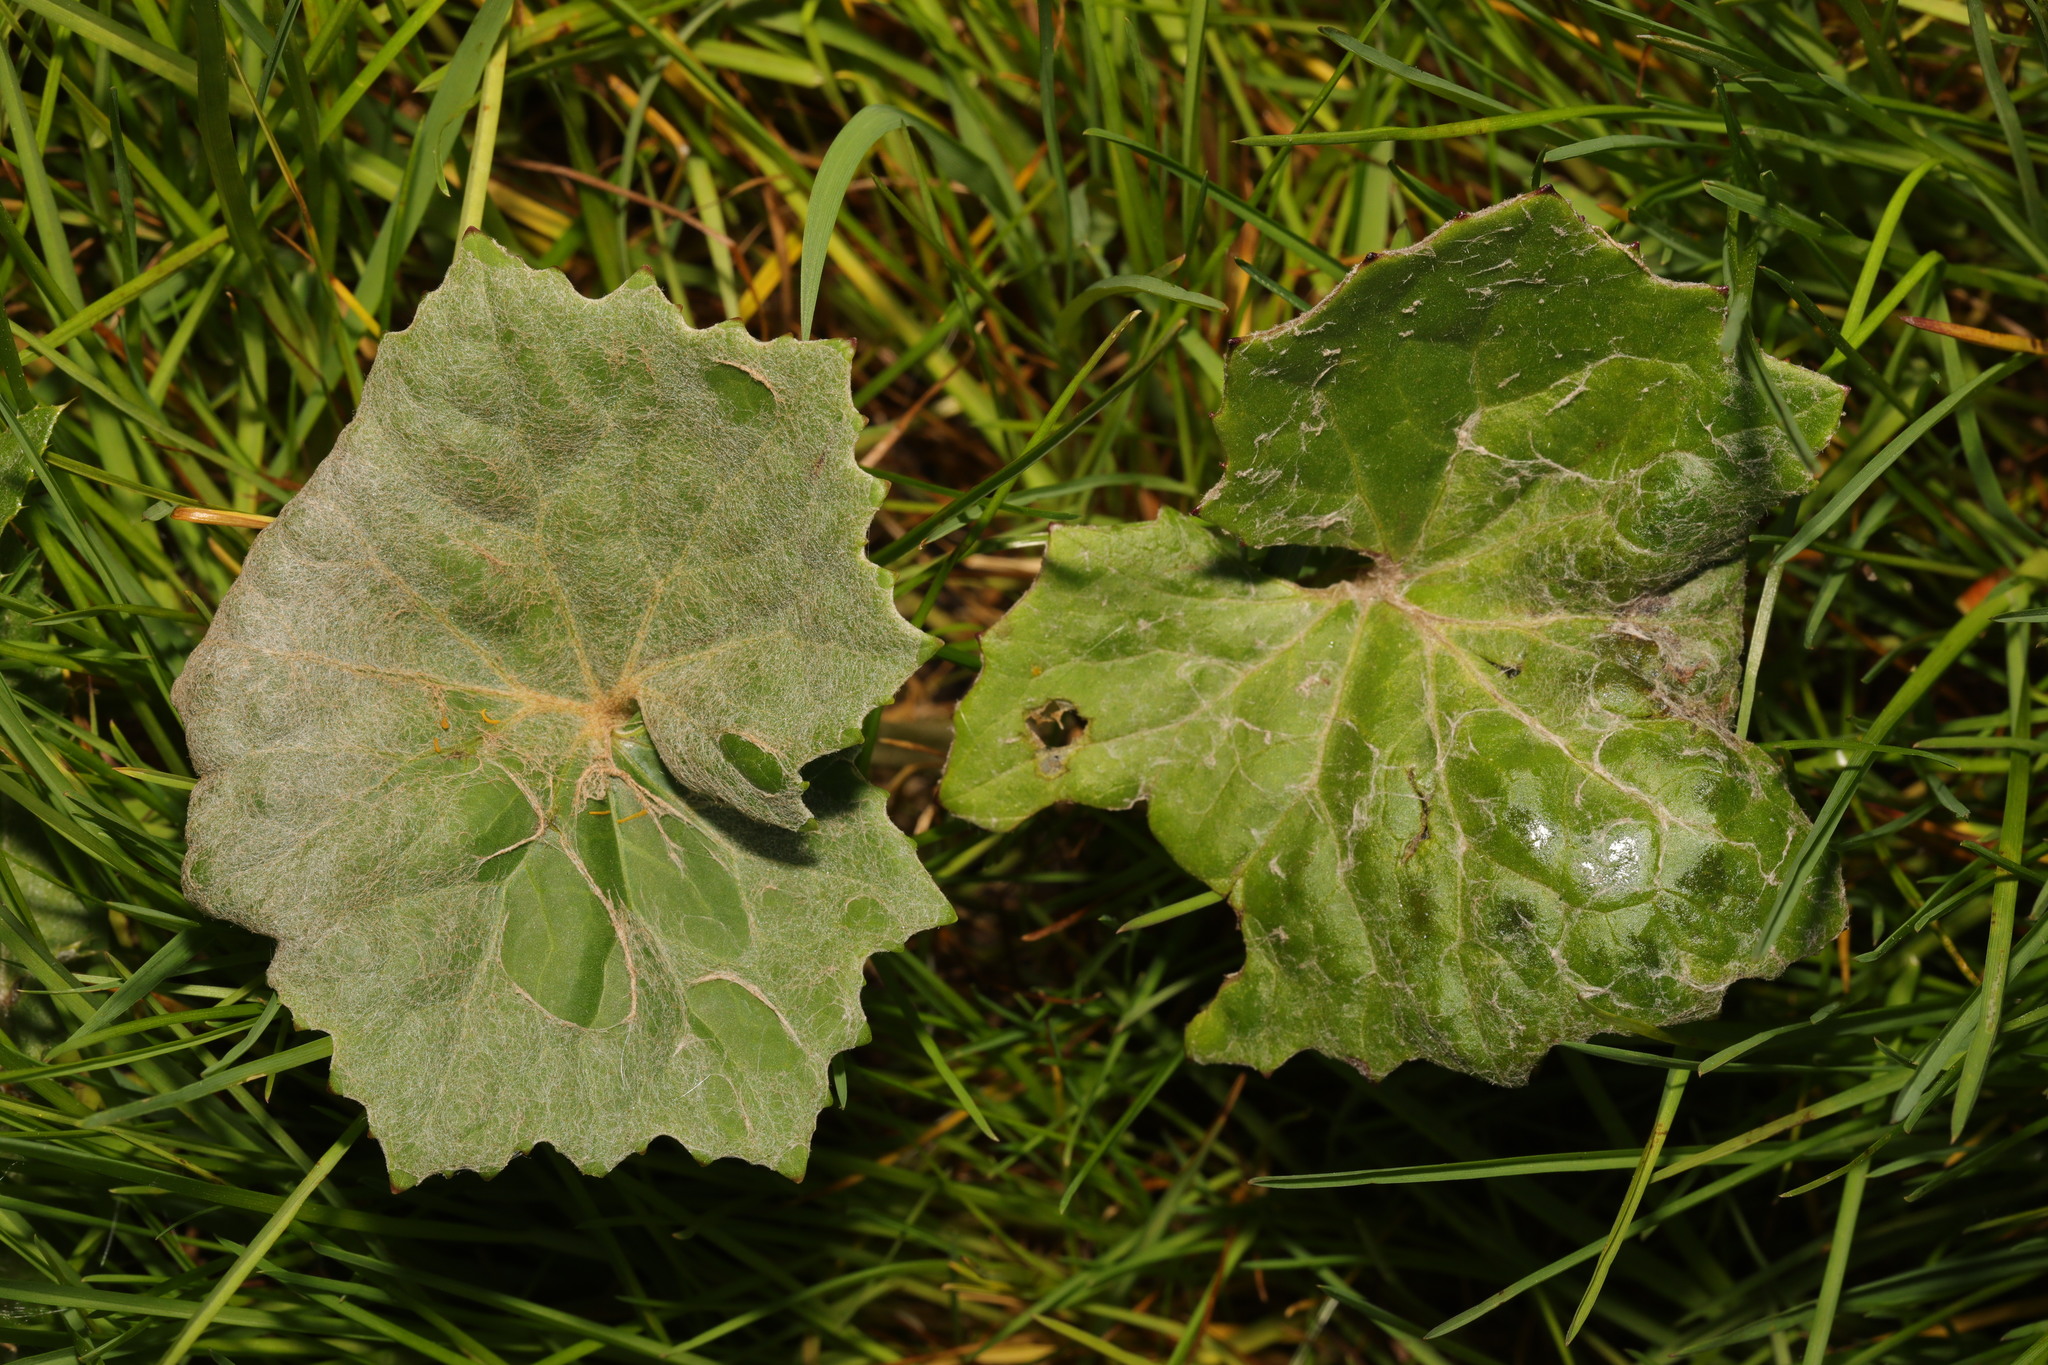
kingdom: Plantae
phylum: Tracheophyta
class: Magnoliopsida
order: Asterales
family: Asteraceae
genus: Tussilago
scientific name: Tussilago farfara
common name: Coltsfoot
